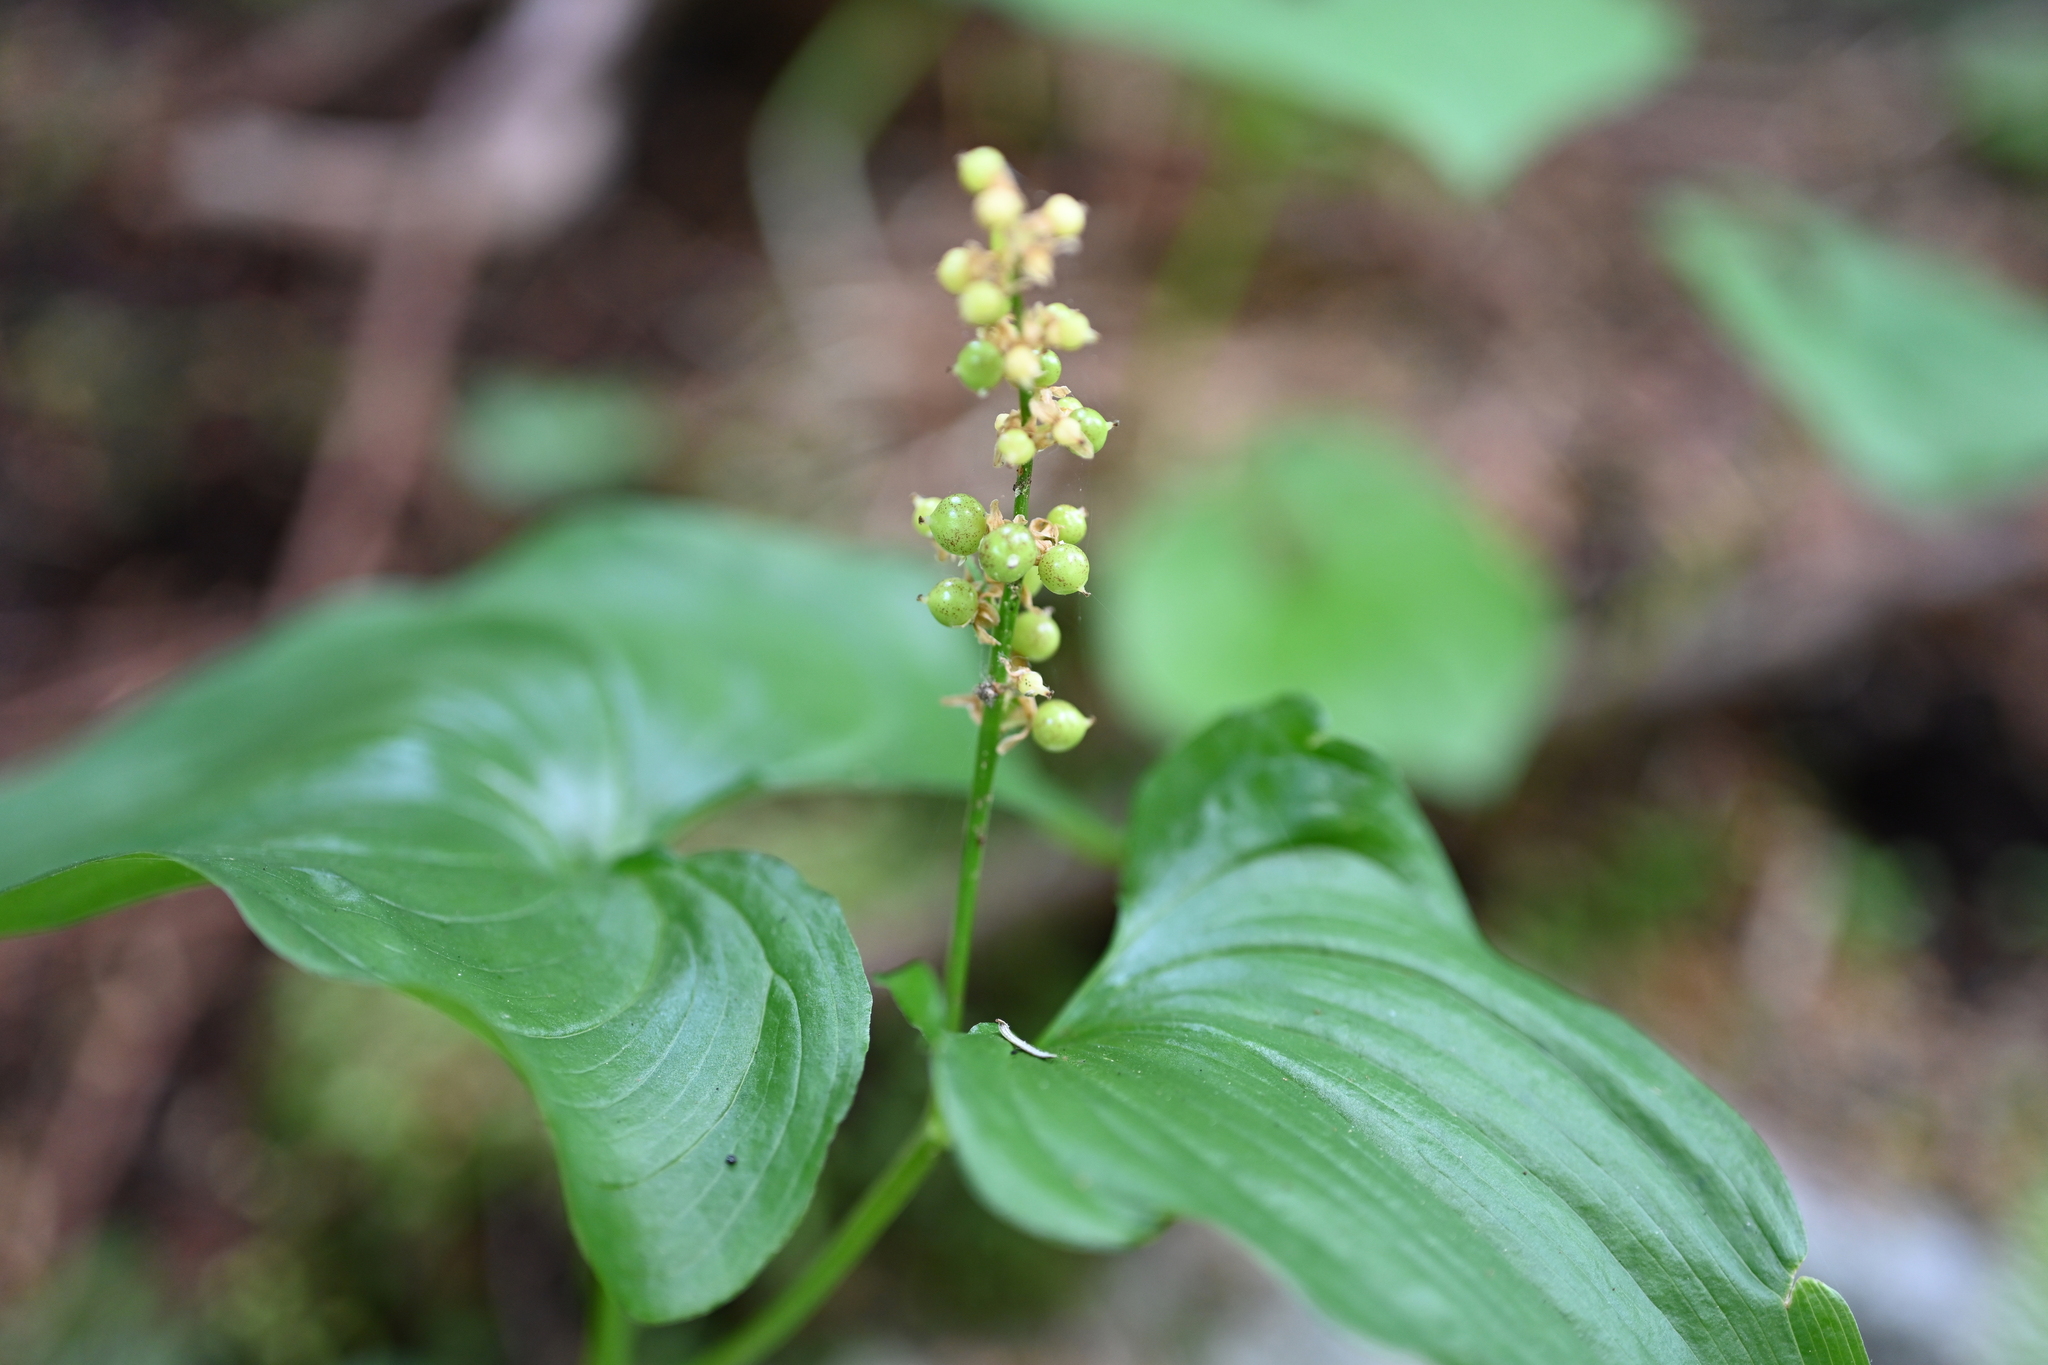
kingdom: Plantae
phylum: Tracheophyta
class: Liliopsida
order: Asparagales
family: Asparagaceae
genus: Maianthemum
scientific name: Maianthemum dilatatum
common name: False lily-of-the-valley
